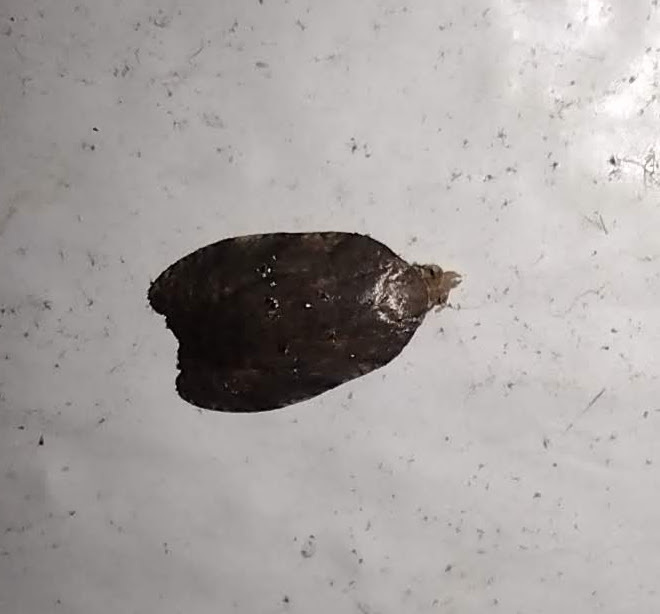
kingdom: Animalia
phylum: Arthropoda
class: Insecta
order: Lepidoptera
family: Tortricidae
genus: Acleris
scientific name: Acleris zimmermani
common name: Tortricid moth
